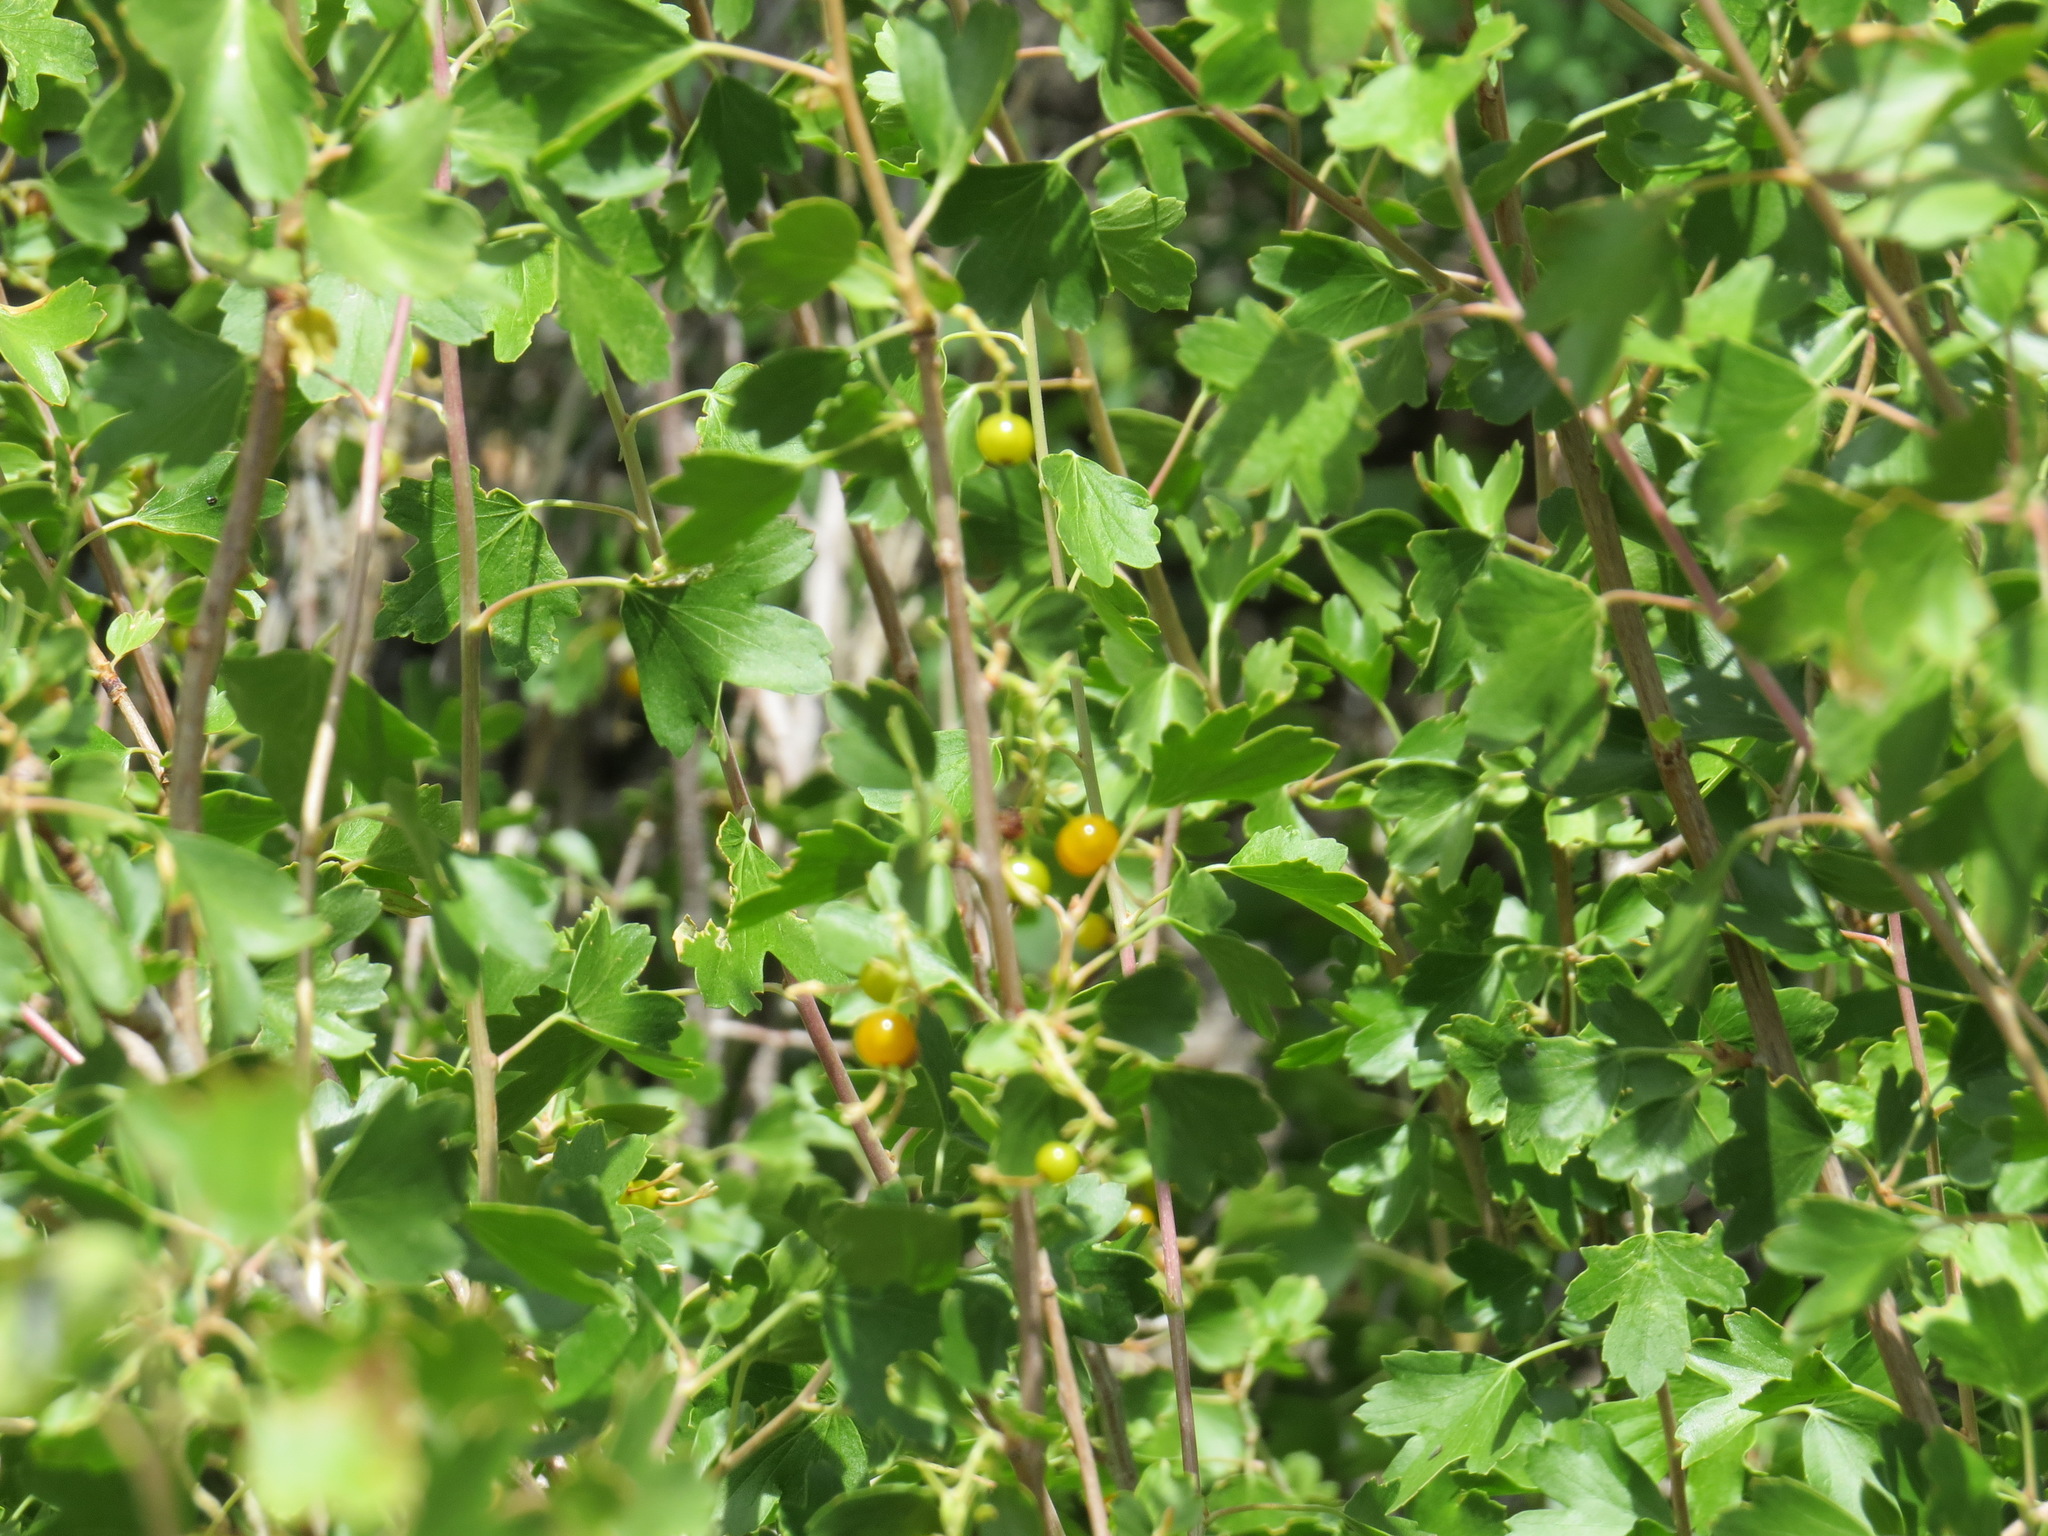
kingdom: Plantae
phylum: Tracheophyta
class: Magnoliopsida
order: Saxifragales
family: Grossulariaceae
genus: Ribes
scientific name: Ribes aureum
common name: Golden currant
